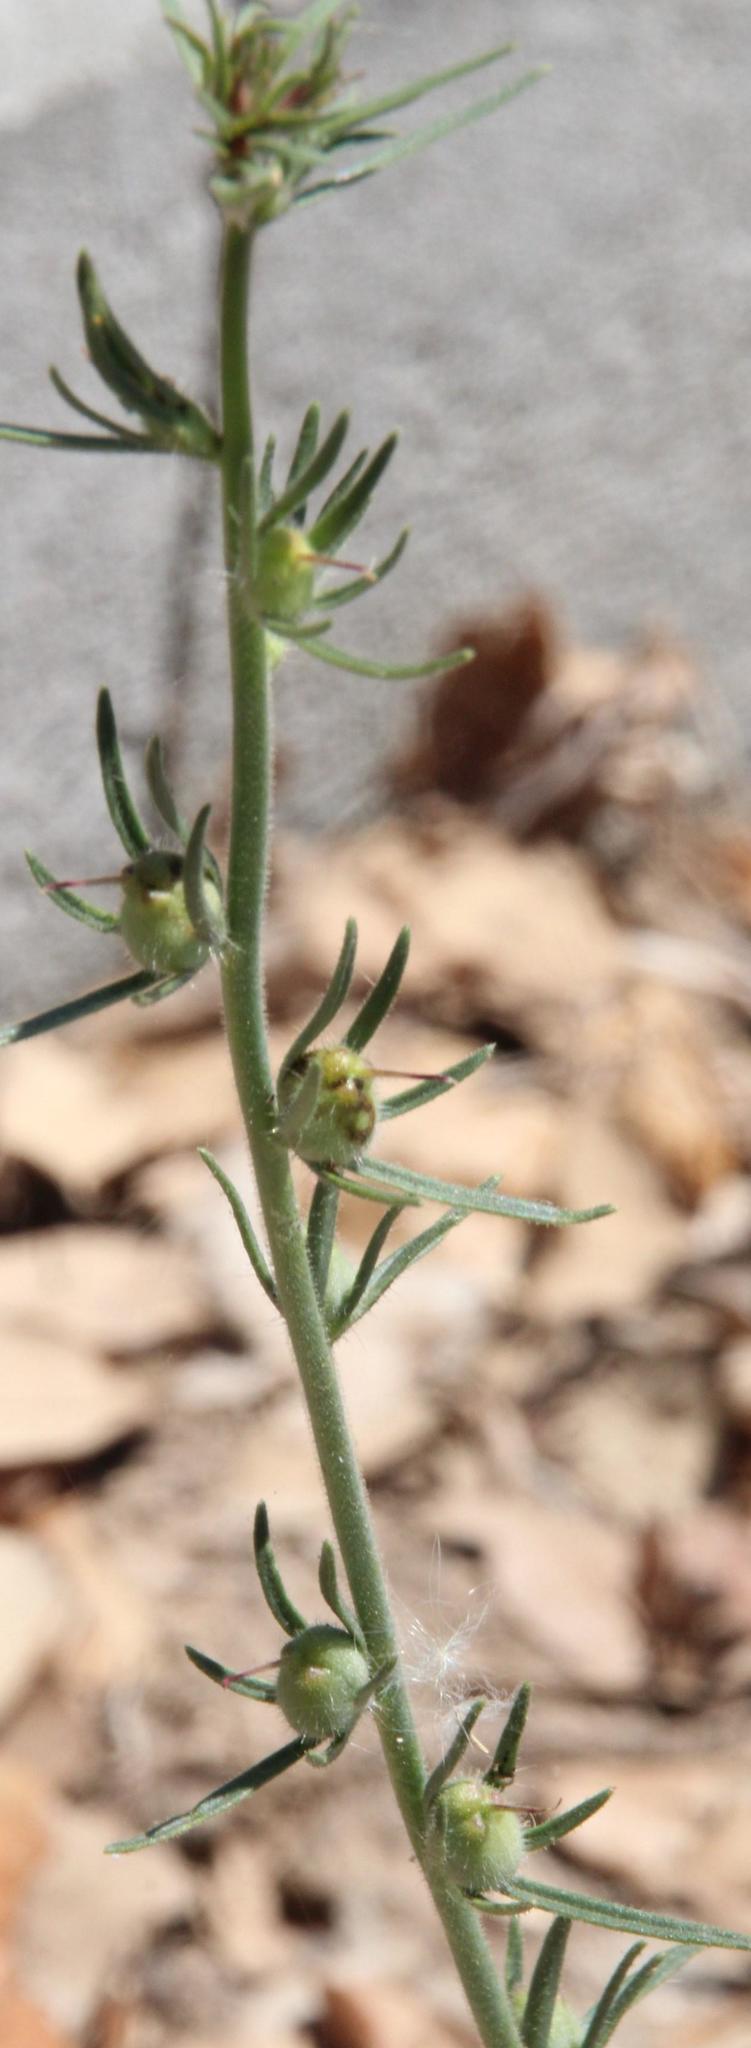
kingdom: Plantae
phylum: Tracheophyta
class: Magnoliopsida
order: Lamiales
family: Plantaginaceae
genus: Misopates
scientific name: Misopates orontium
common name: Weasel's-snout
